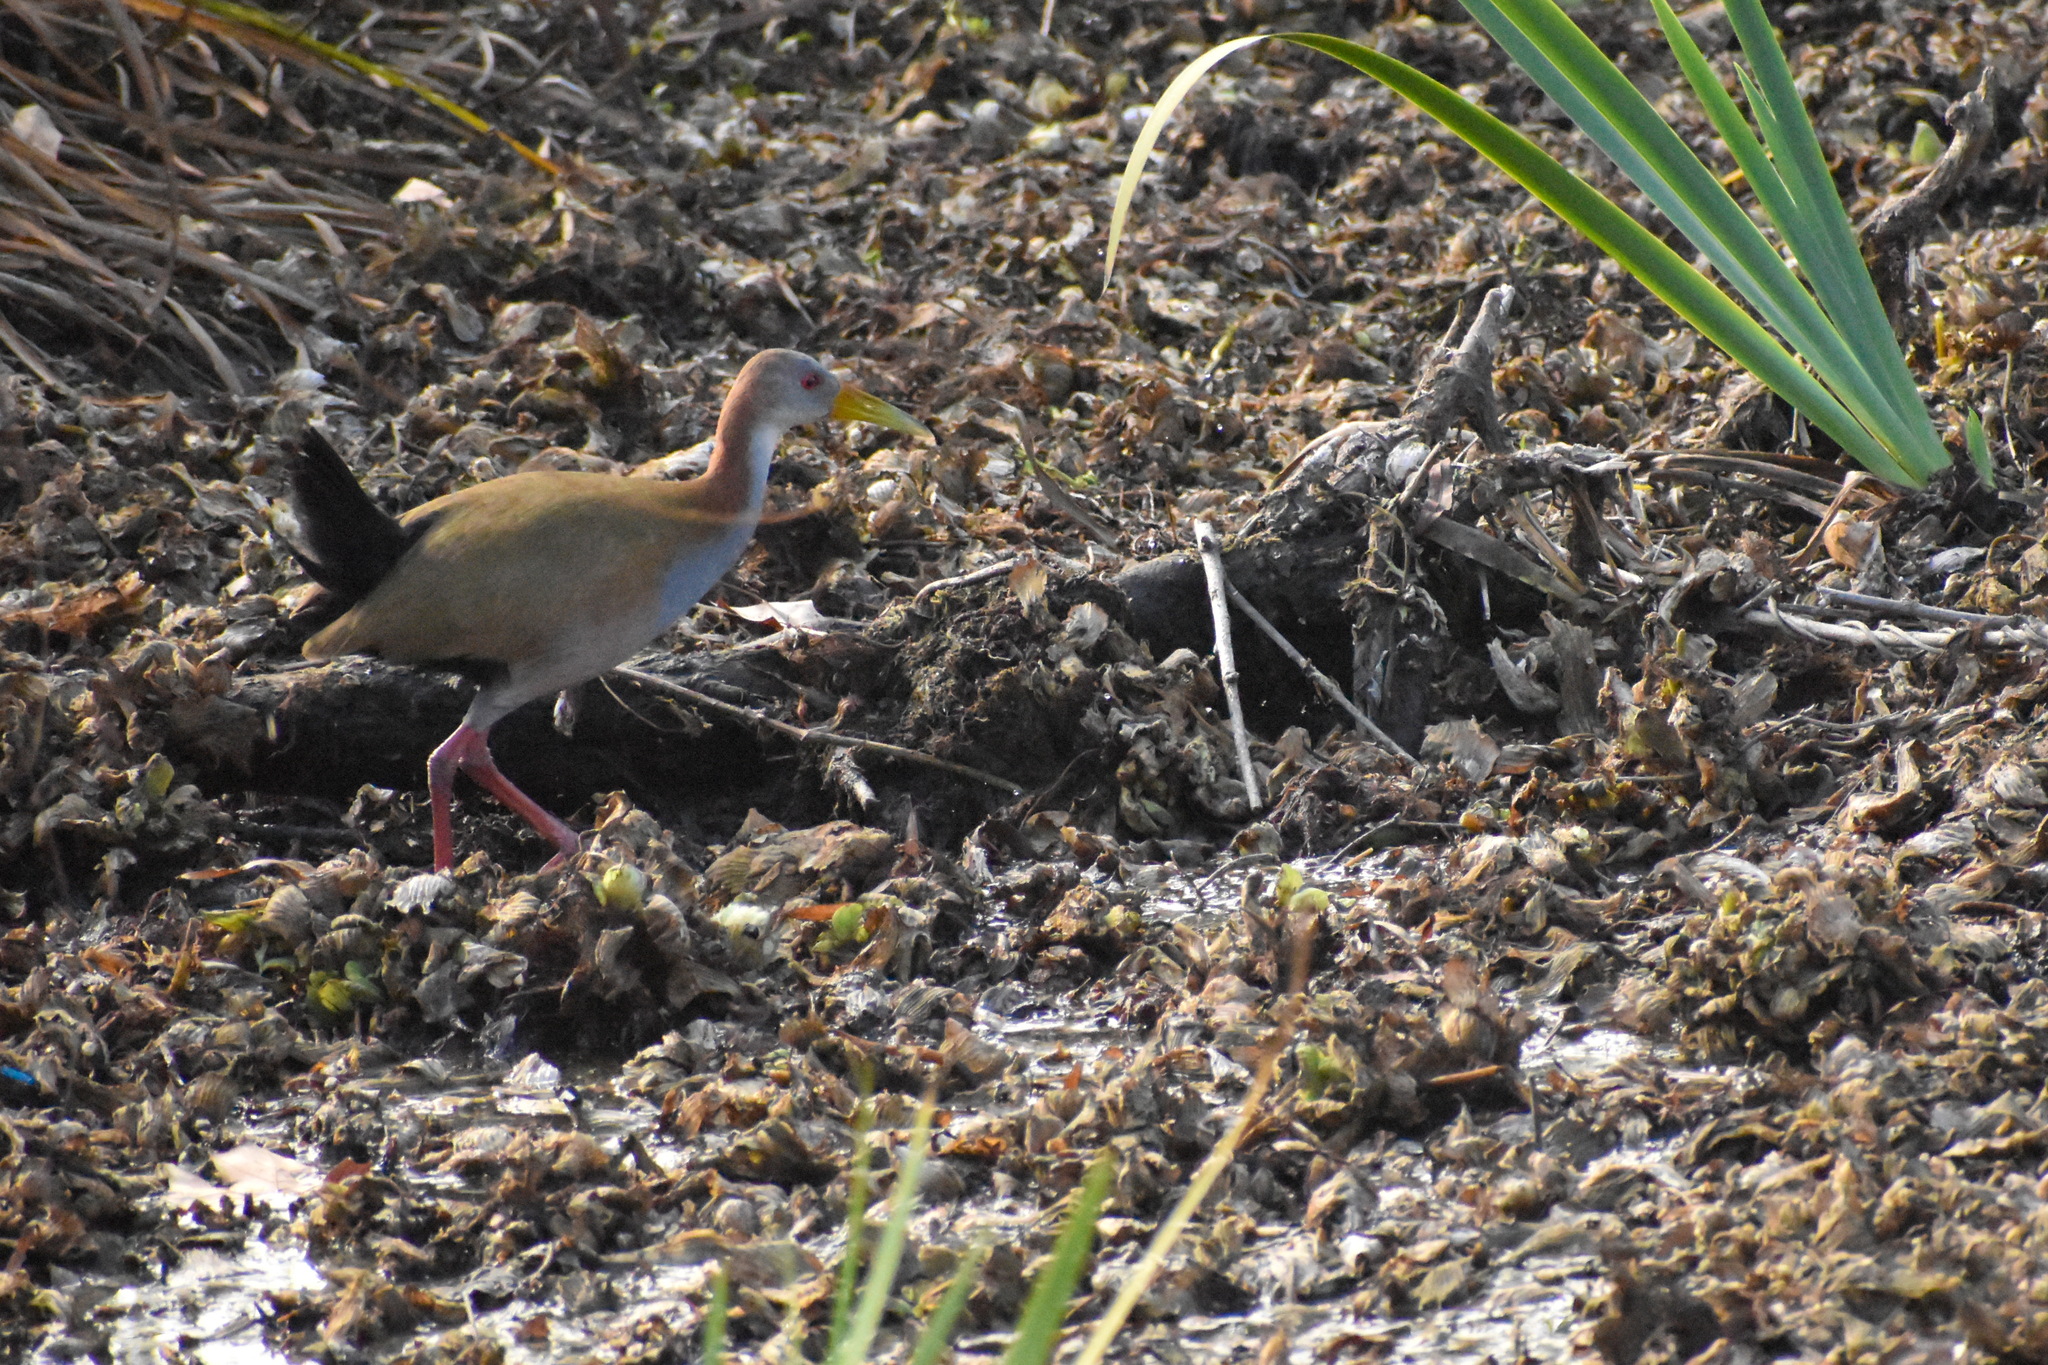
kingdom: Animalia
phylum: Chordata
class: Aves
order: Gruiformes
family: Rallidae
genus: Aramides
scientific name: Aramides ypecaha
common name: Giant wood rail
